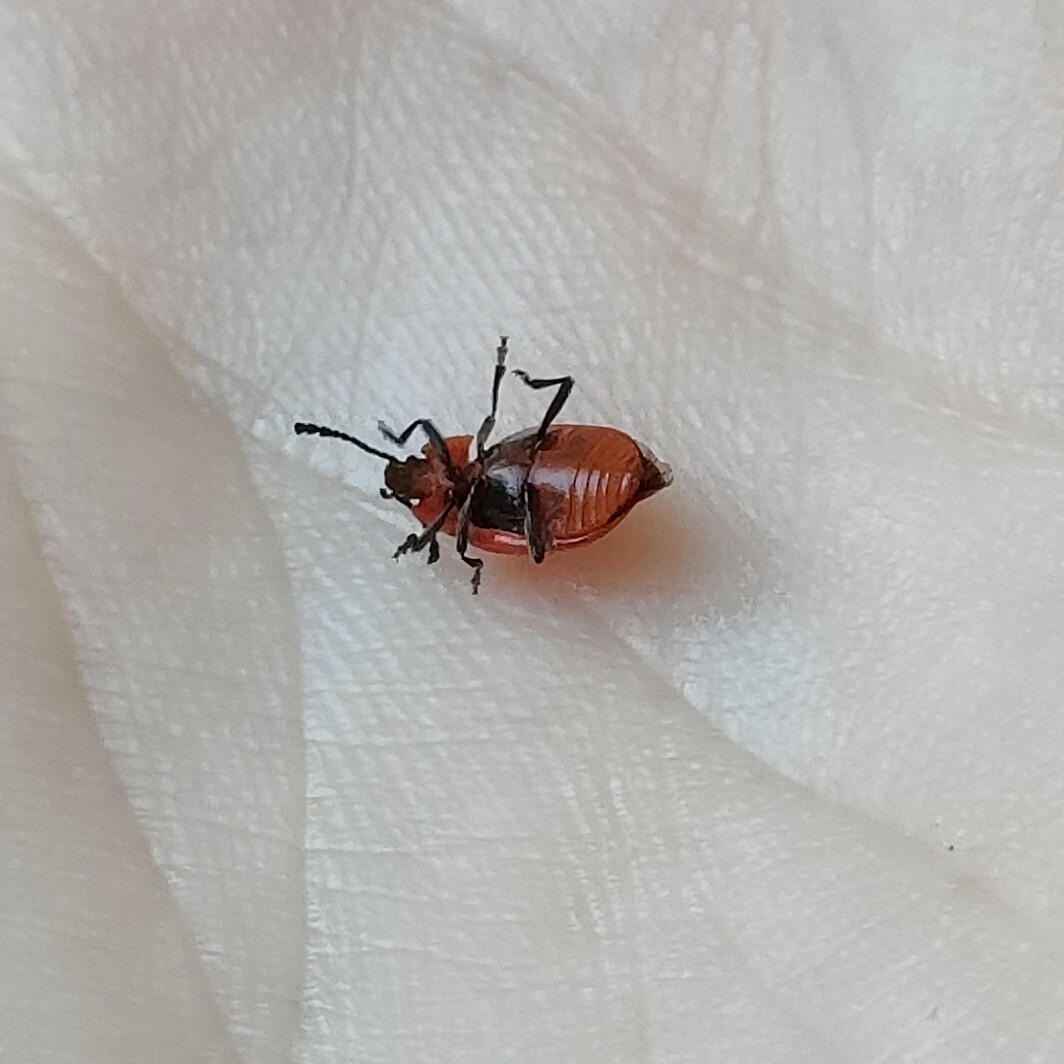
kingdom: Animalia
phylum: Arthropoda
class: Insecta
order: Coleoptera
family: Endomychidae
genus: Endomychus
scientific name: Endomychus coccineus
